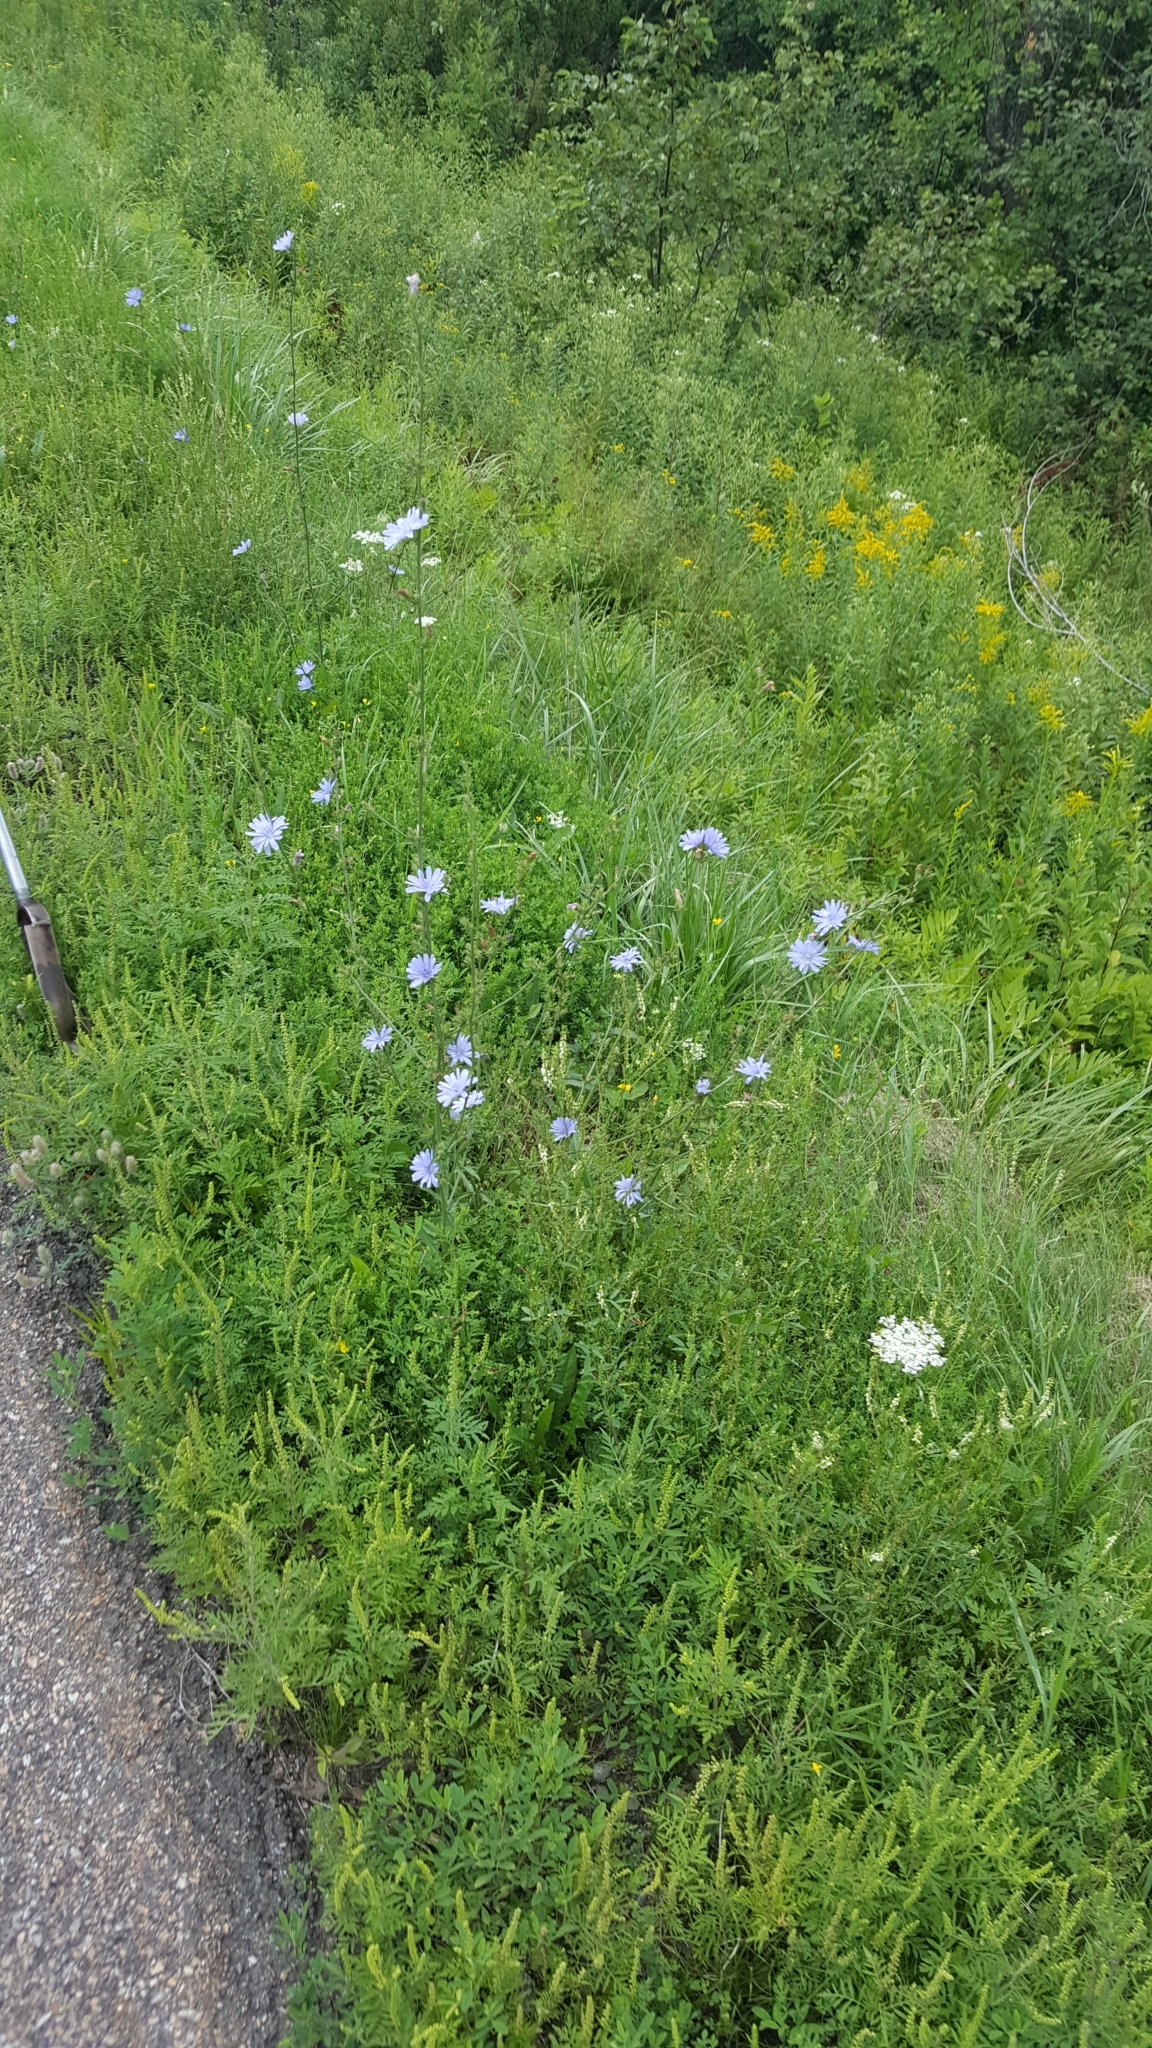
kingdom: Plantae
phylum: Tracheophyta
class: Magnoliopsida
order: Asterales
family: Asteraceae
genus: Cichorium
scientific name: Cichorium intybus
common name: Chicory
